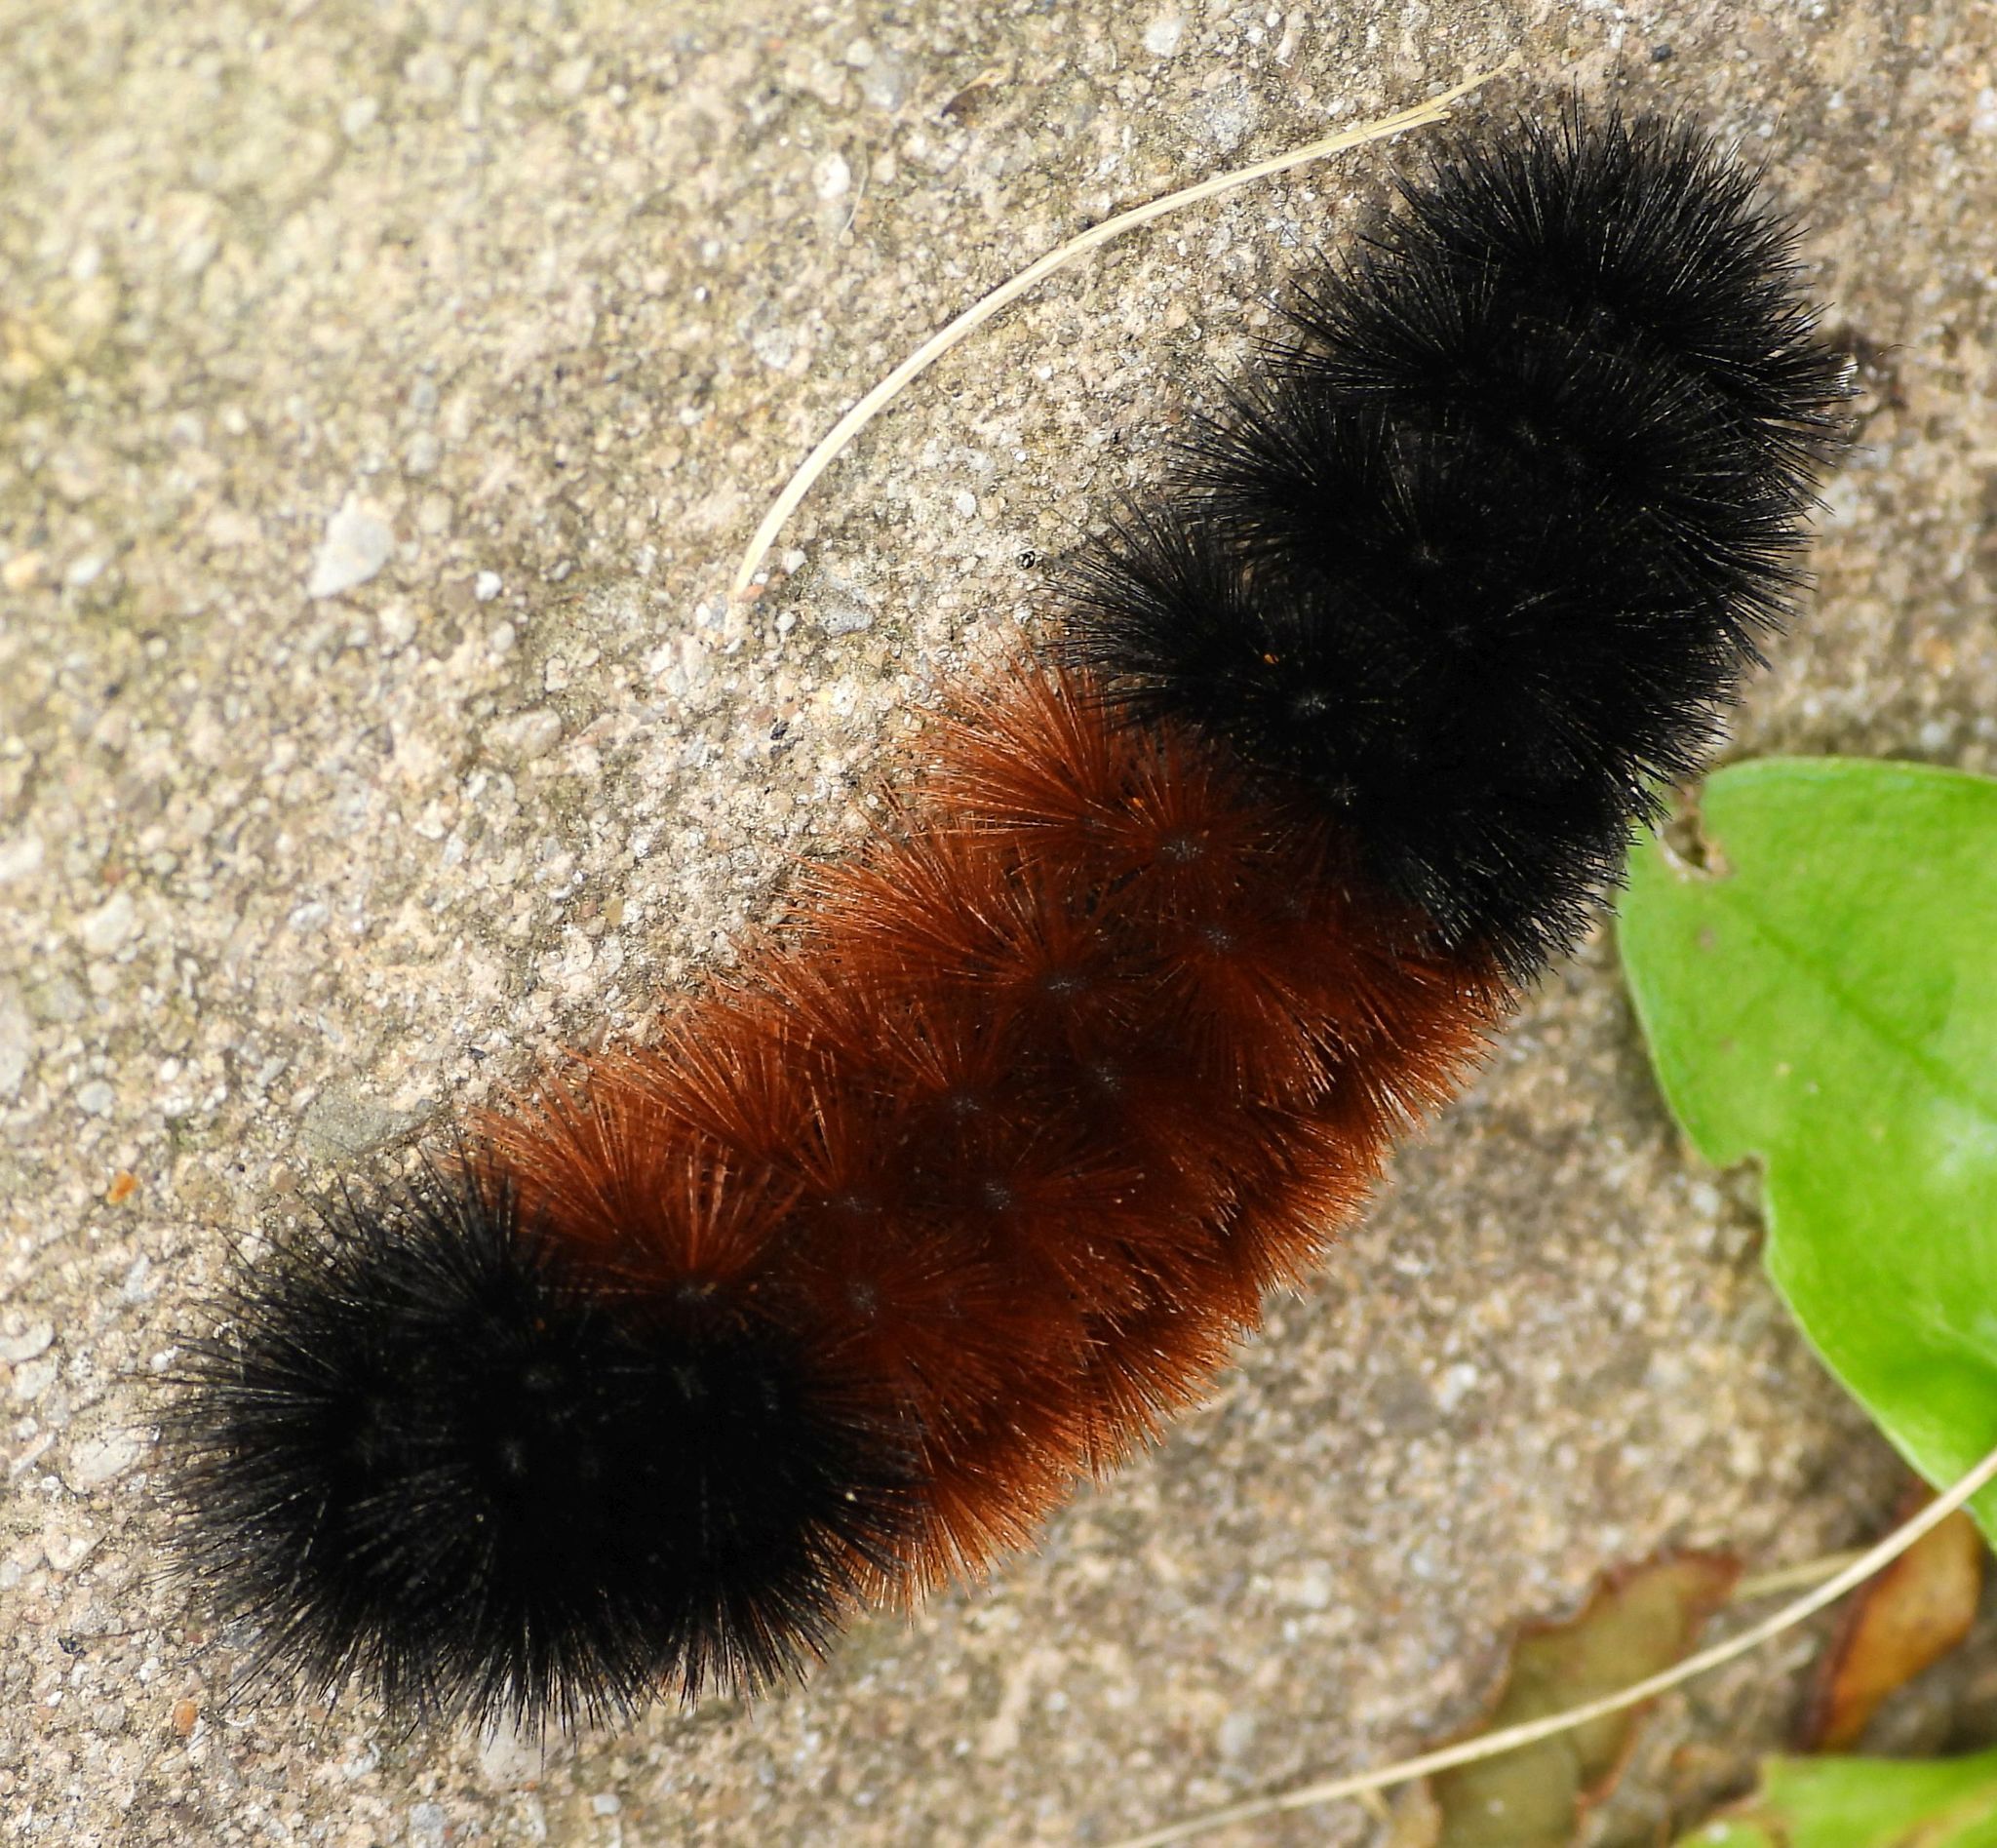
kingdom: Animalia
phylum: Arthropoda
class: Insecta
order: Lepidoptera
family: Erebidae
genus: Pyrrharctia
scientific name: Pyrrharctia isabella
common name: Isabella tiger moth
